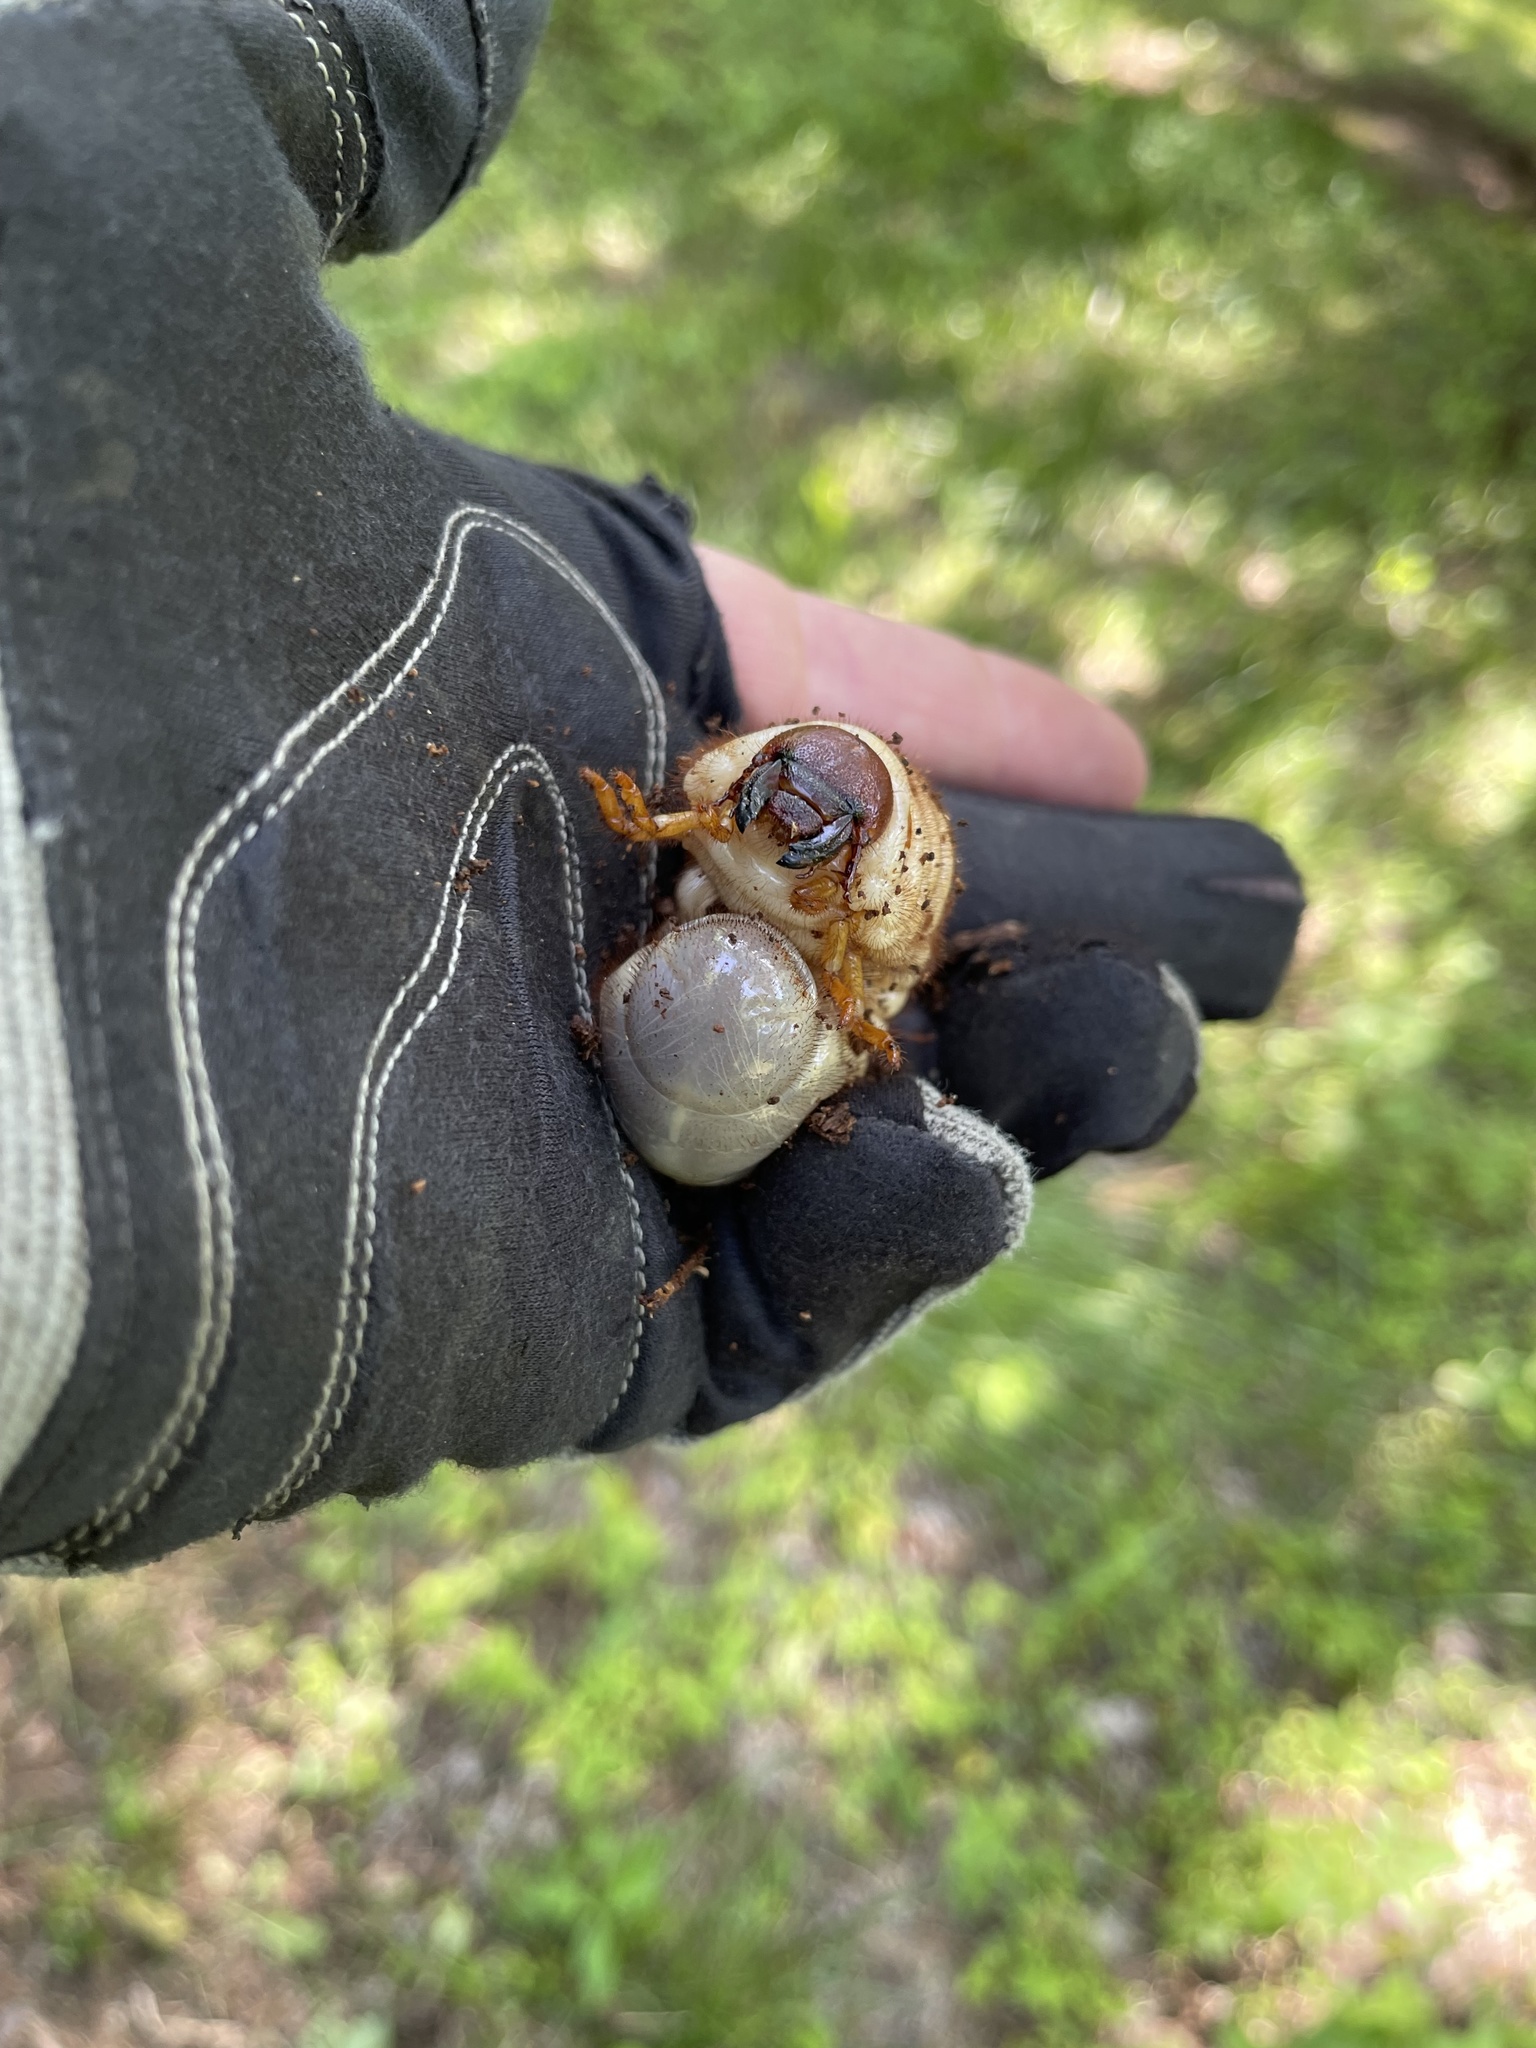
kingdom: Animalia
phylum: Arthropoda
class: Insecta
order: Coleoptera
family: Scarabaeidae
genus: Dynastes
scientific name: Dynastes tityus
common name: Eastern hercules beetle
